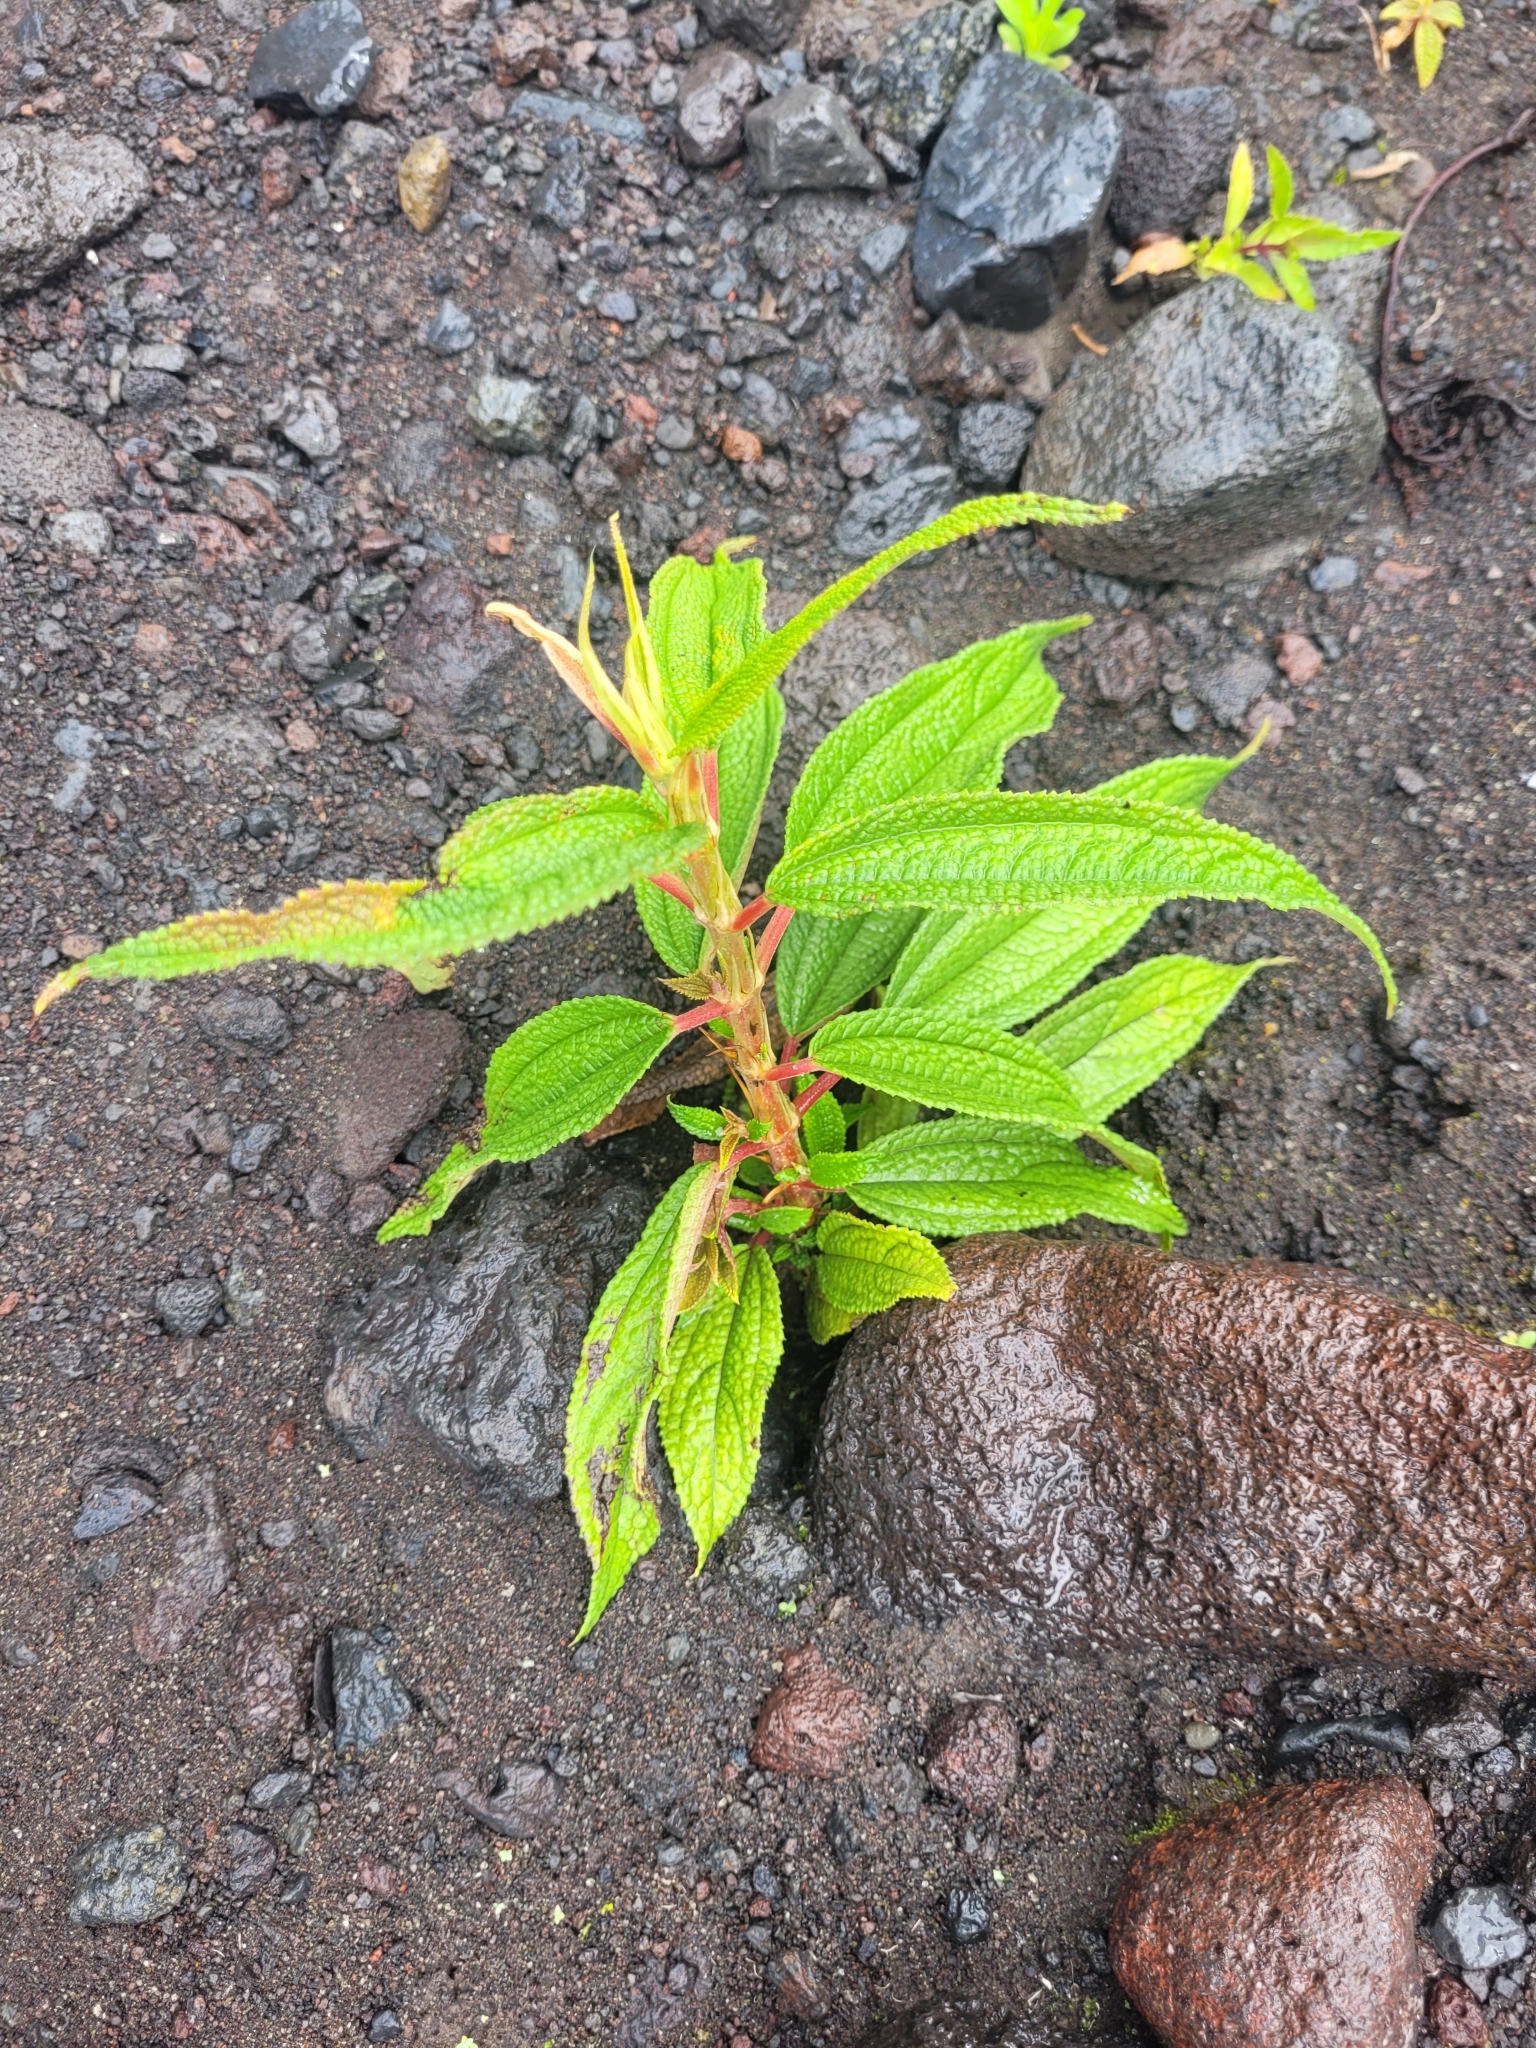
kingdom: Plantae
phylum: Tracheophyta
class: Magnoliopsida
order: Rosales
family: Urticaceae
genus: Boehmeria
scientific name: Boehmeria penduliflora
